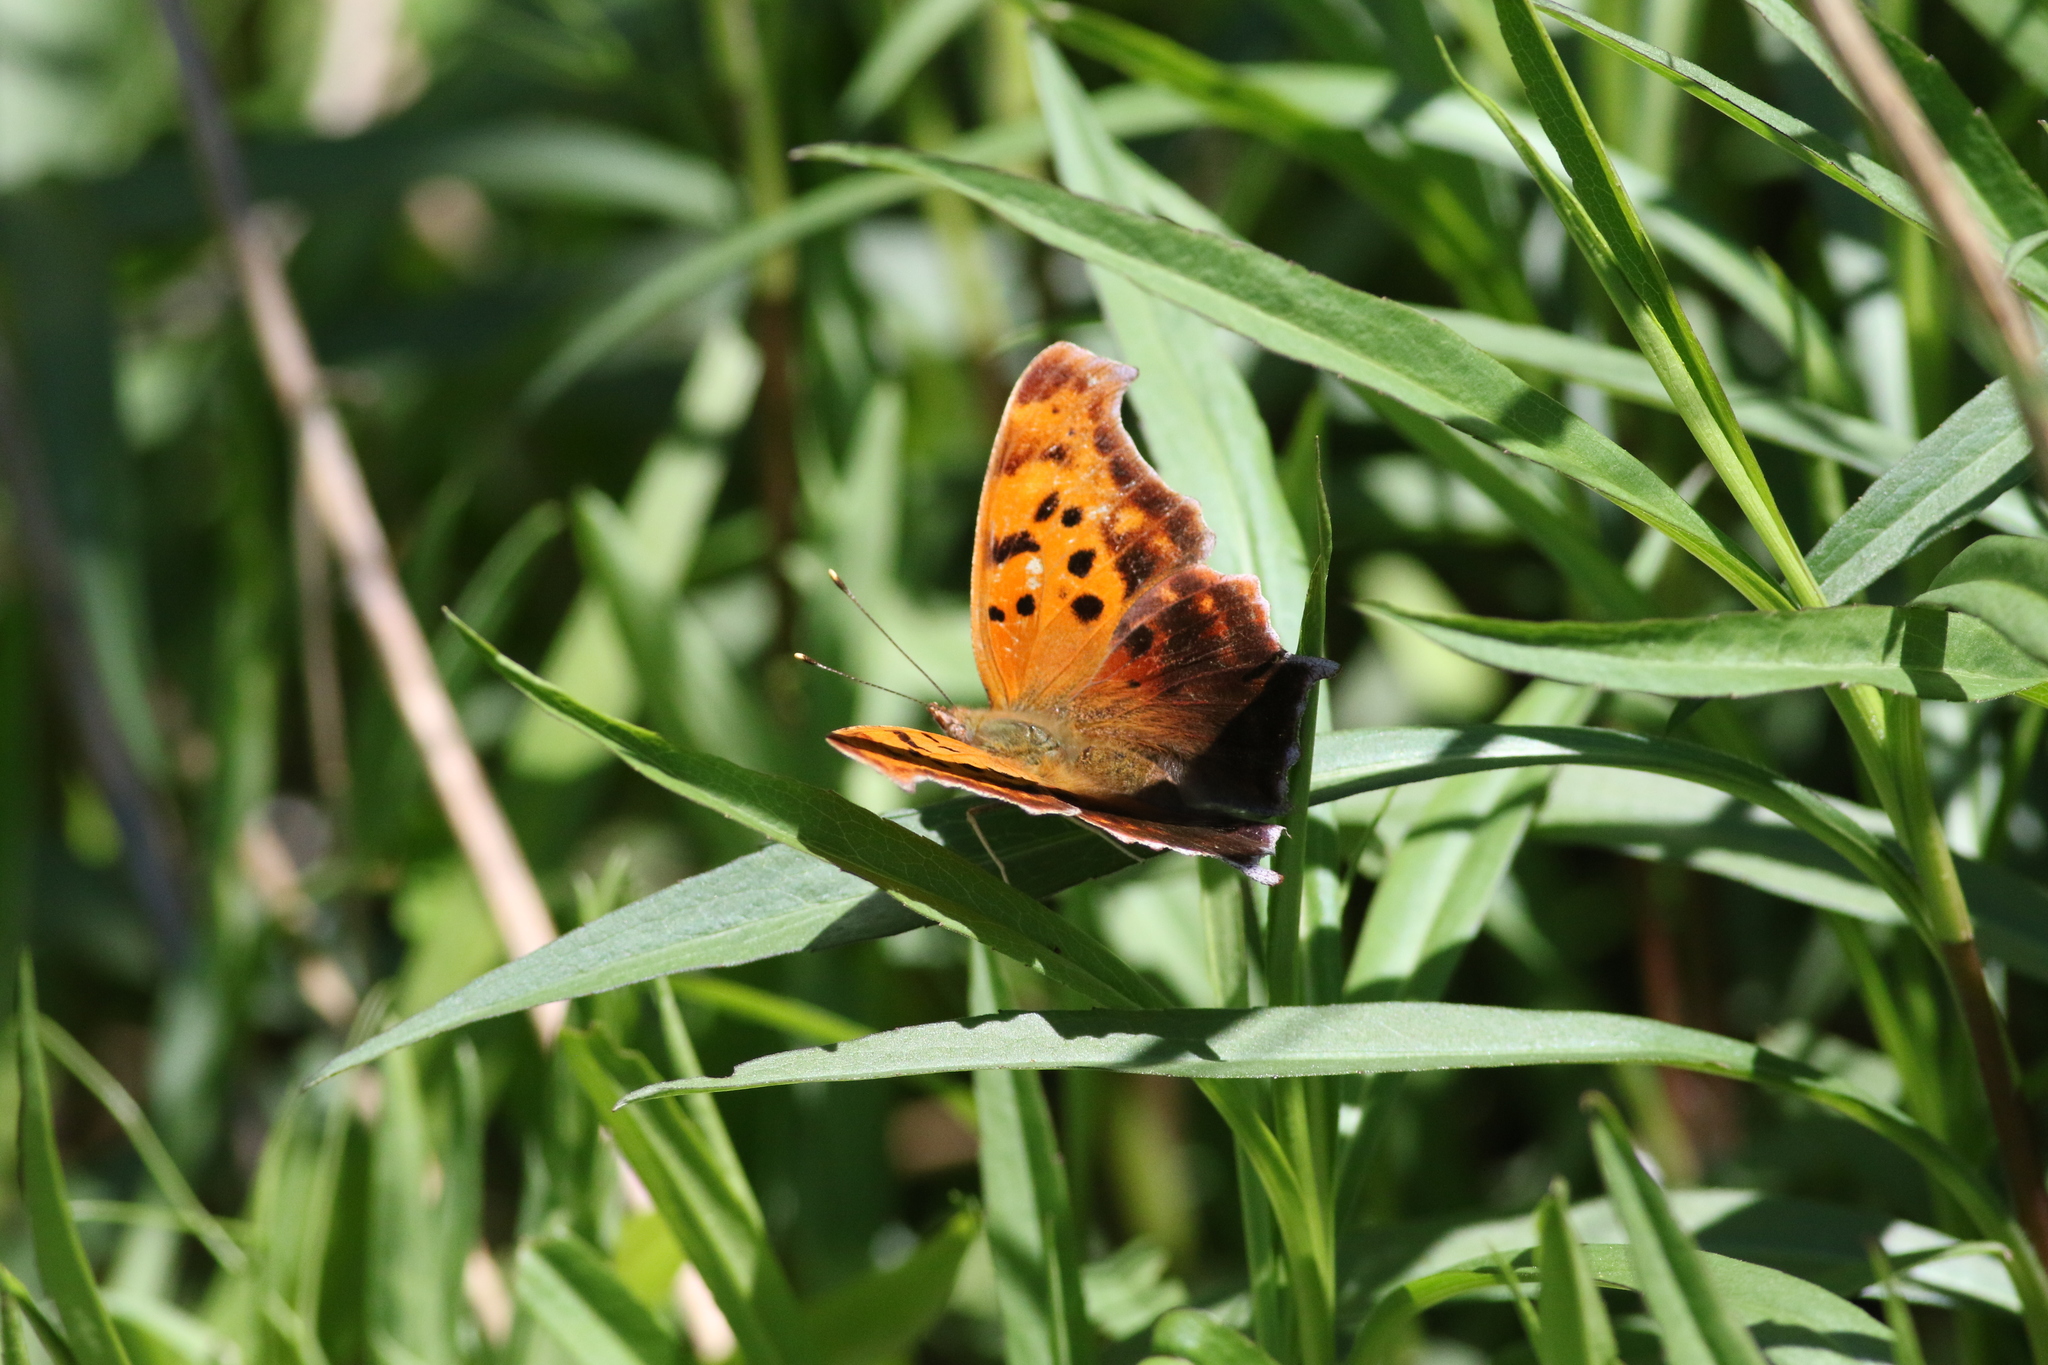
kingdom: Animalia
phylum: Arthropoda
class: Insecta
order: Lepidoptera
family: Nymphalidae
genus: Polygonia
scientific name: Polygonia interrogationis
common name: Question mark
